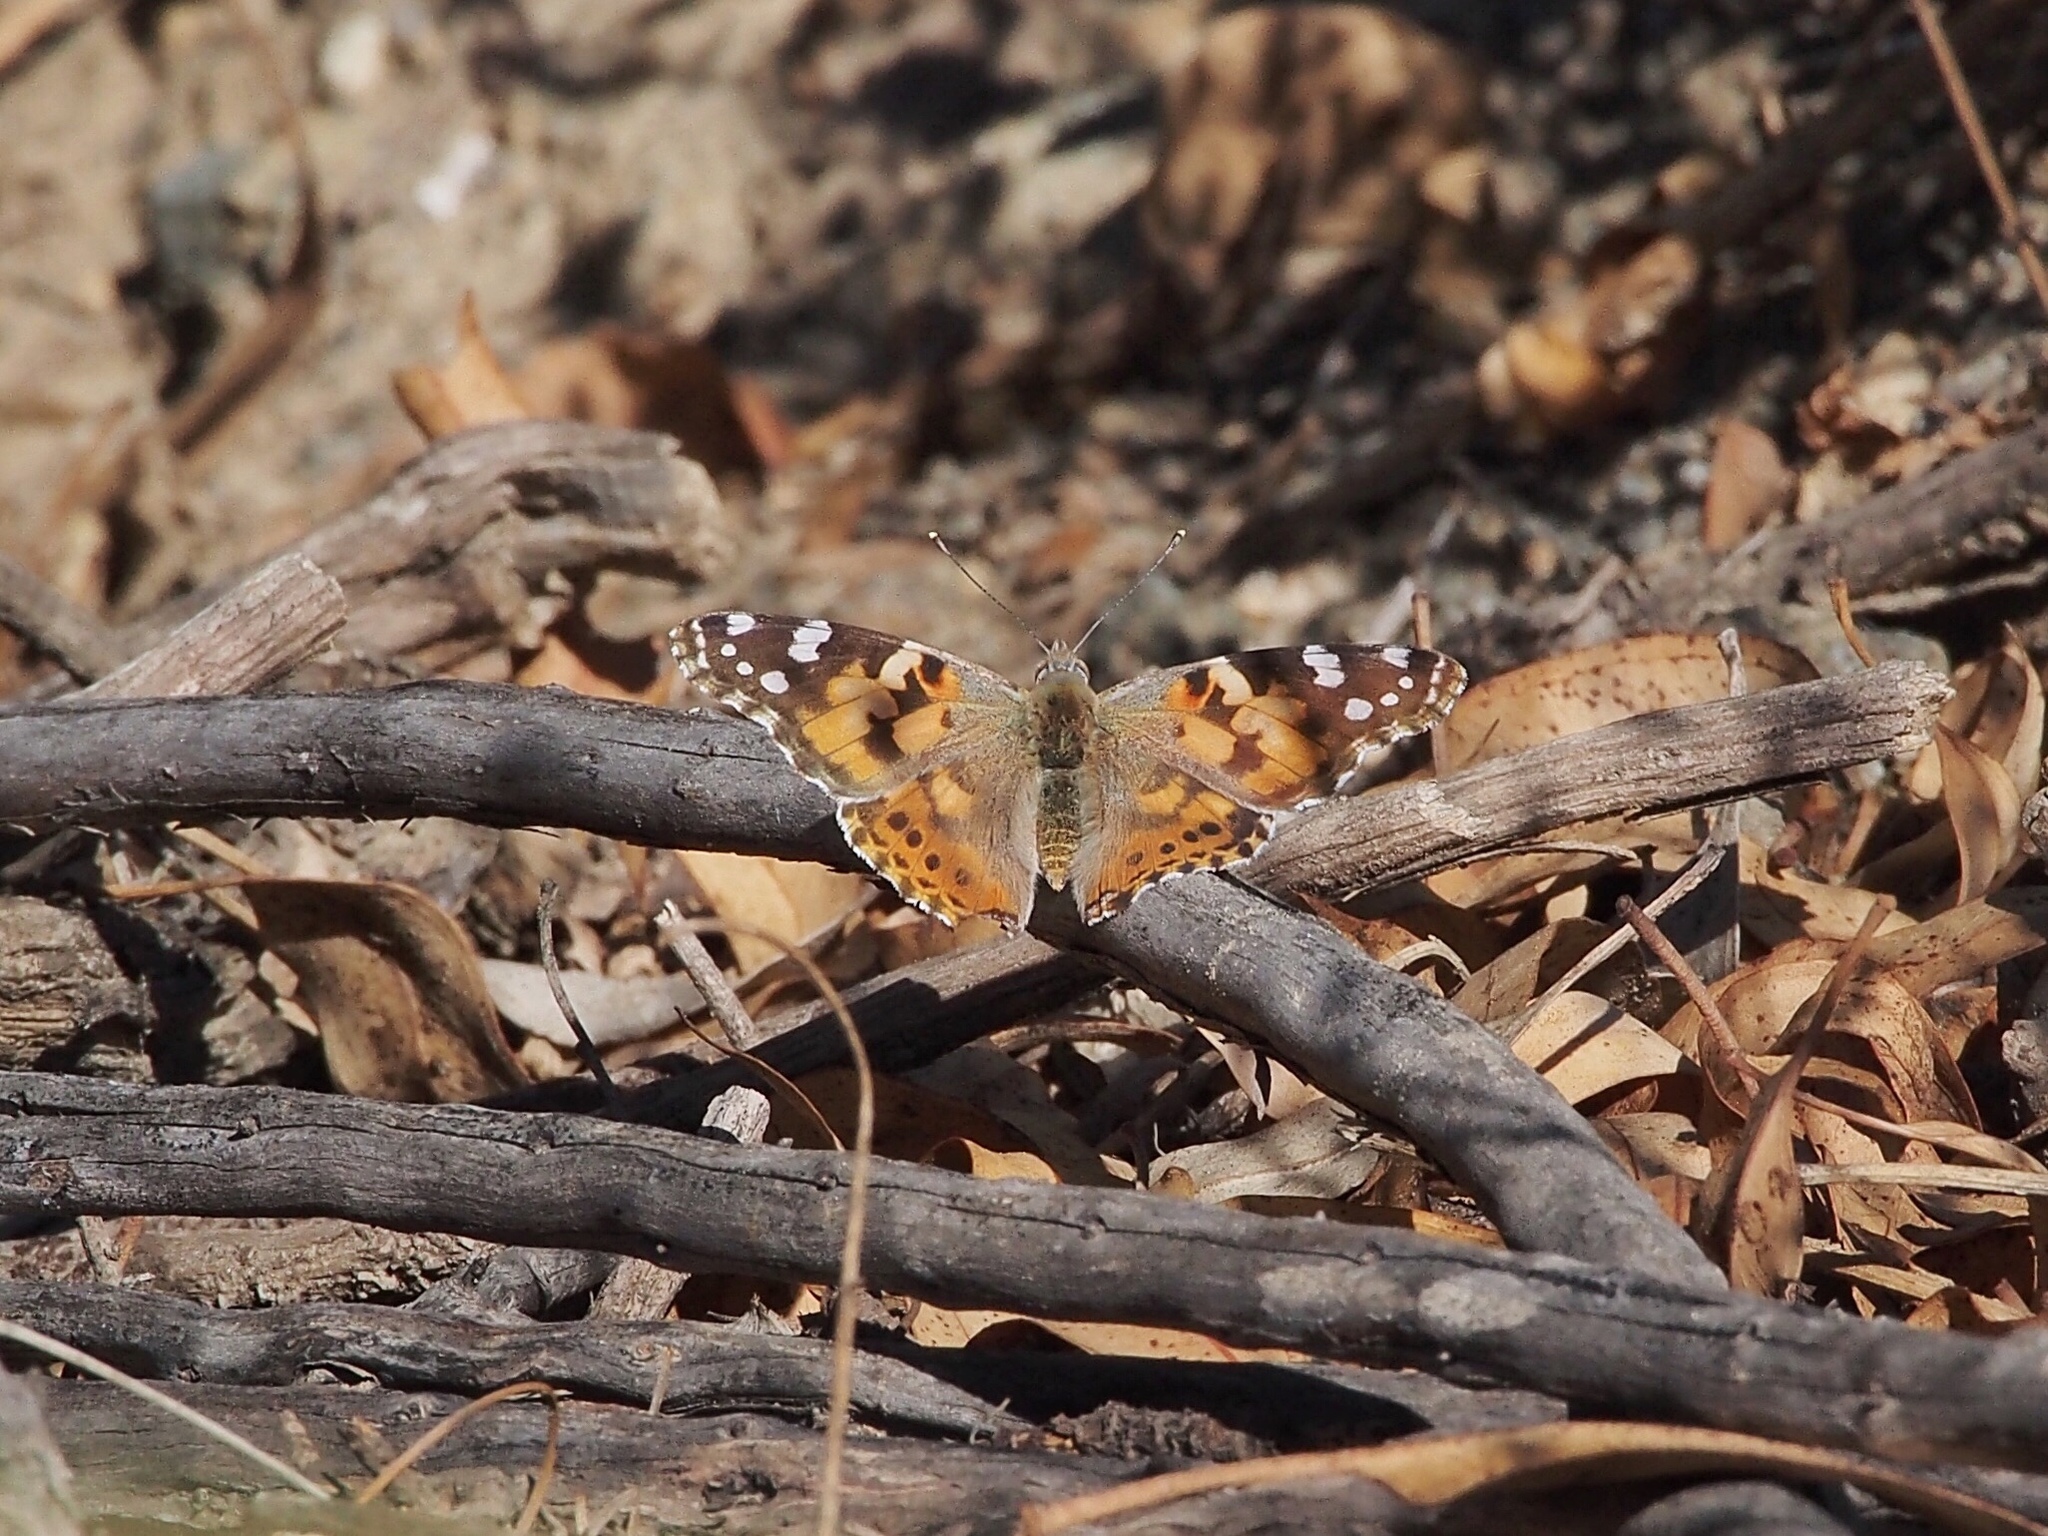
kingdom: Animalia
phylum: Arthropoda
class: Insecta
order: Lepidoptera
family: Nymphalidae
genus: Vanessa
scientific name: Vanessa cardui
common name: Painted lady
